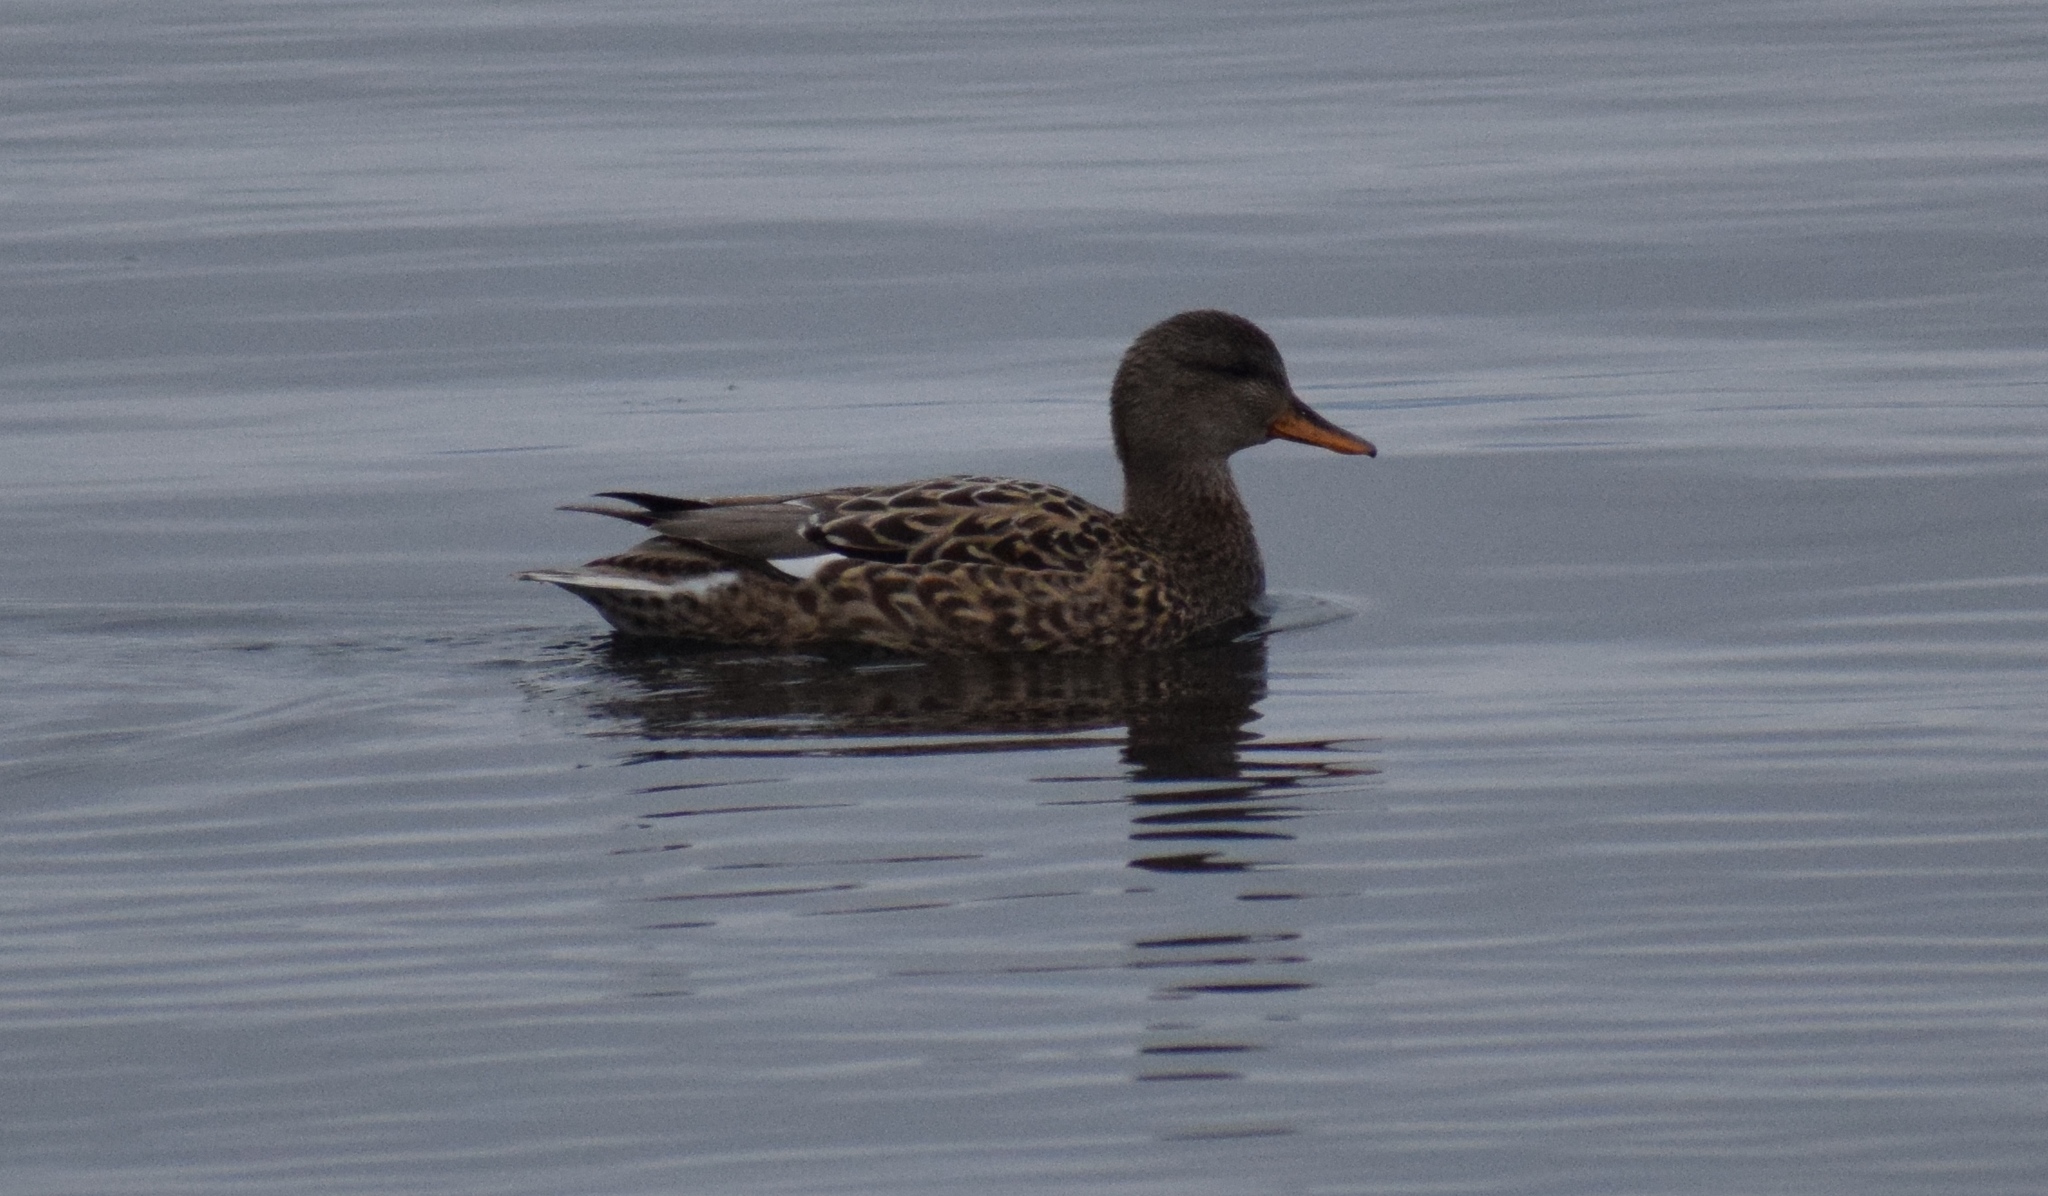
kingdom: Animalia
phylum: Chordata
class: Aves
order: Anseriformes
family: Anatidae
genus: Mareca
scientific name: Mareca strepera
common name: Gadwall
